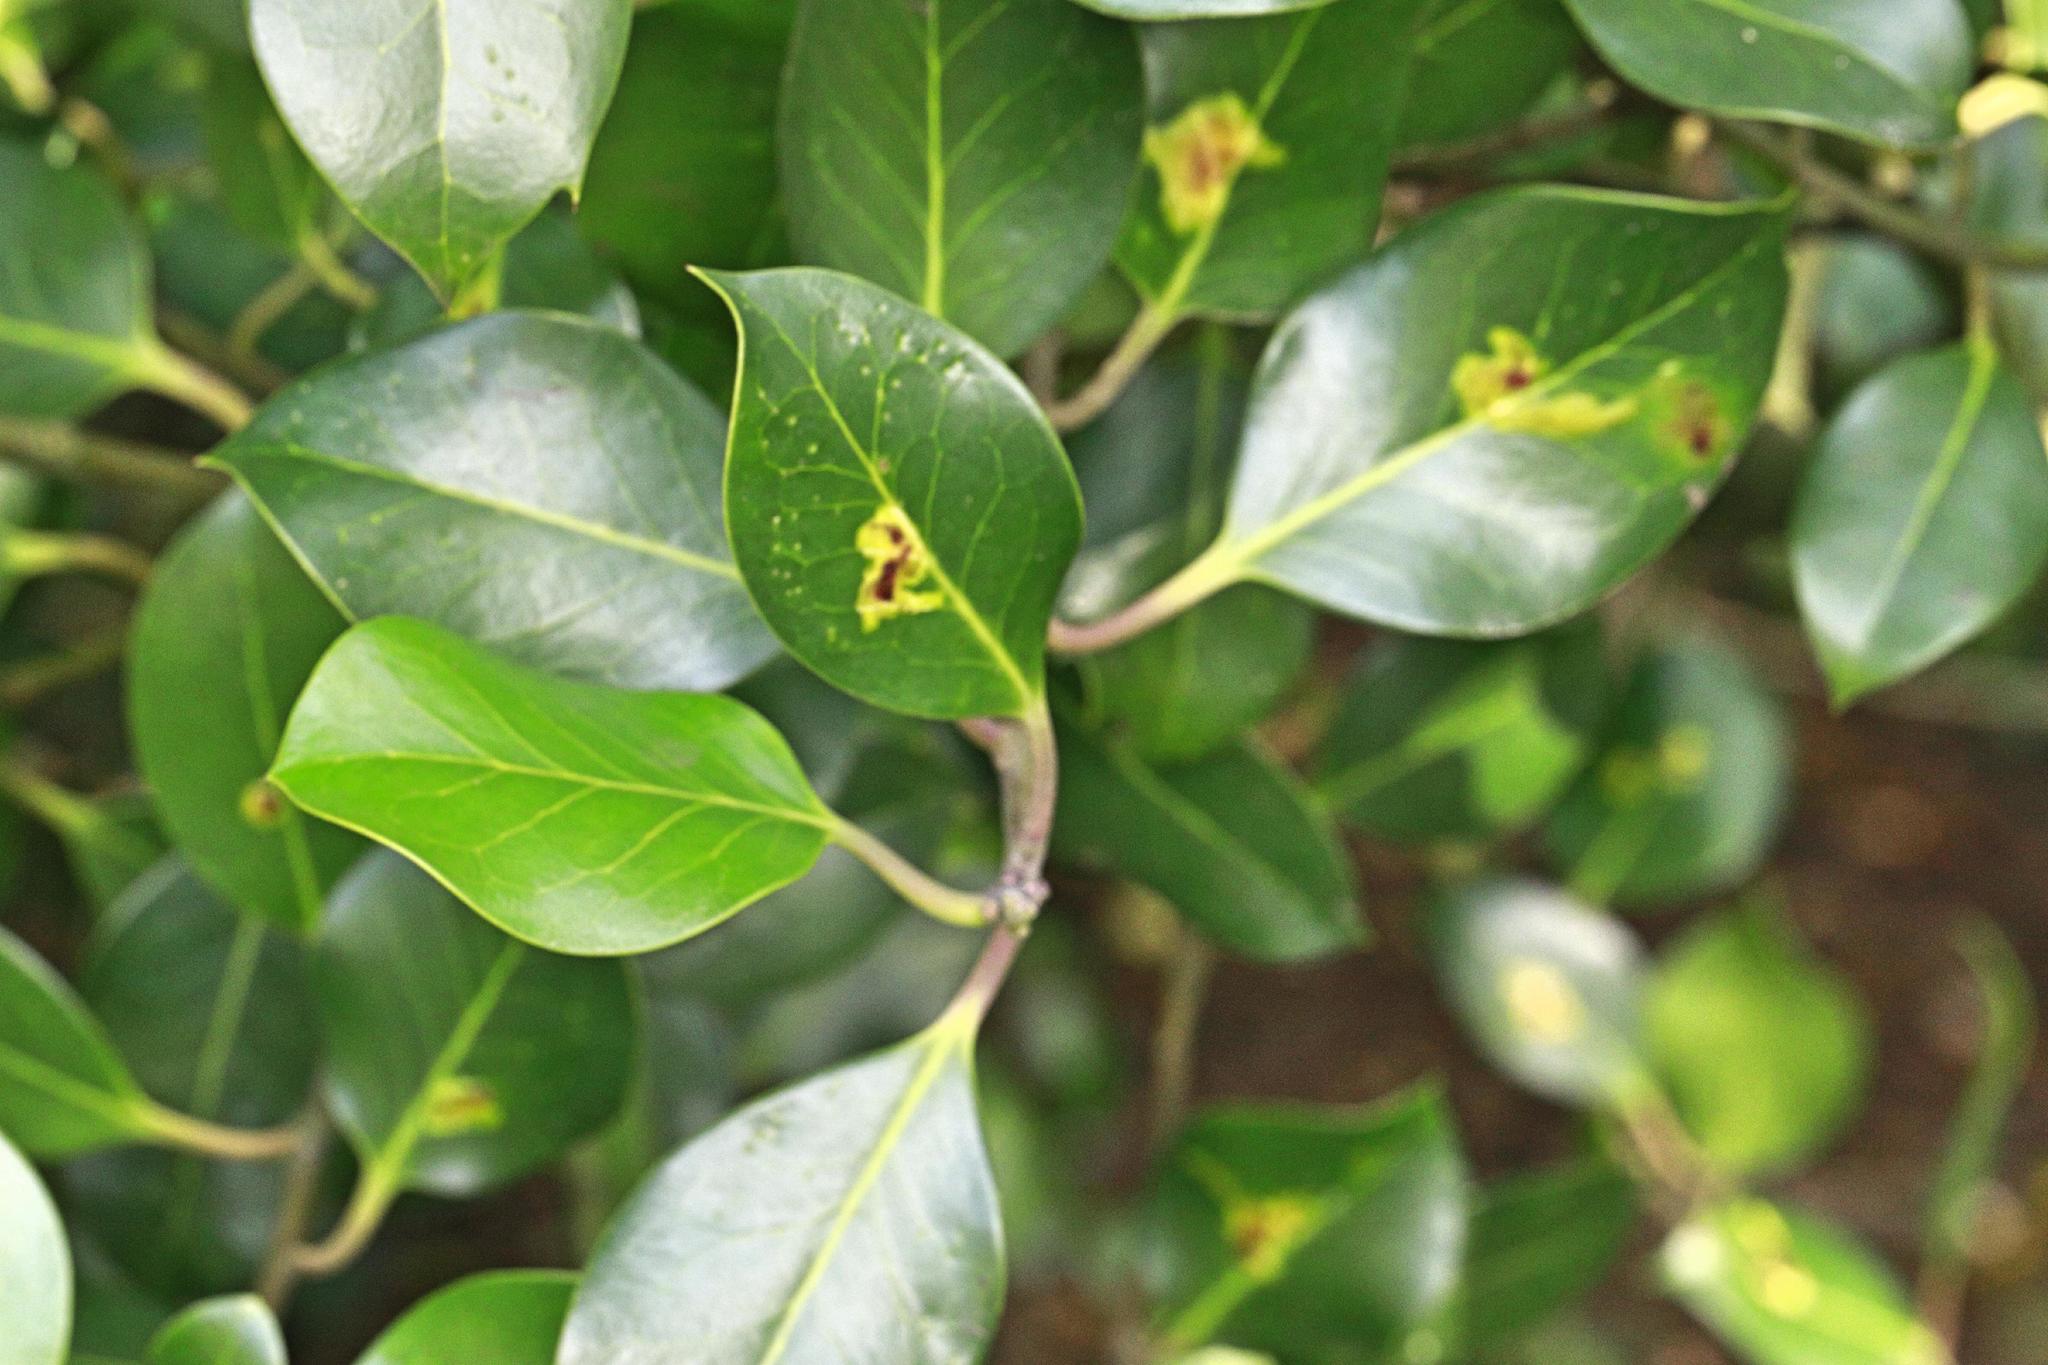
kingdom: Plantae
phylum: Tracheophyta
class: Magnoliopsida
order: Aquifoliales
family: Aquifoliaceae
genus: Ilex
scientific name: Ilex altaclerensis
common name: Highclere holly
